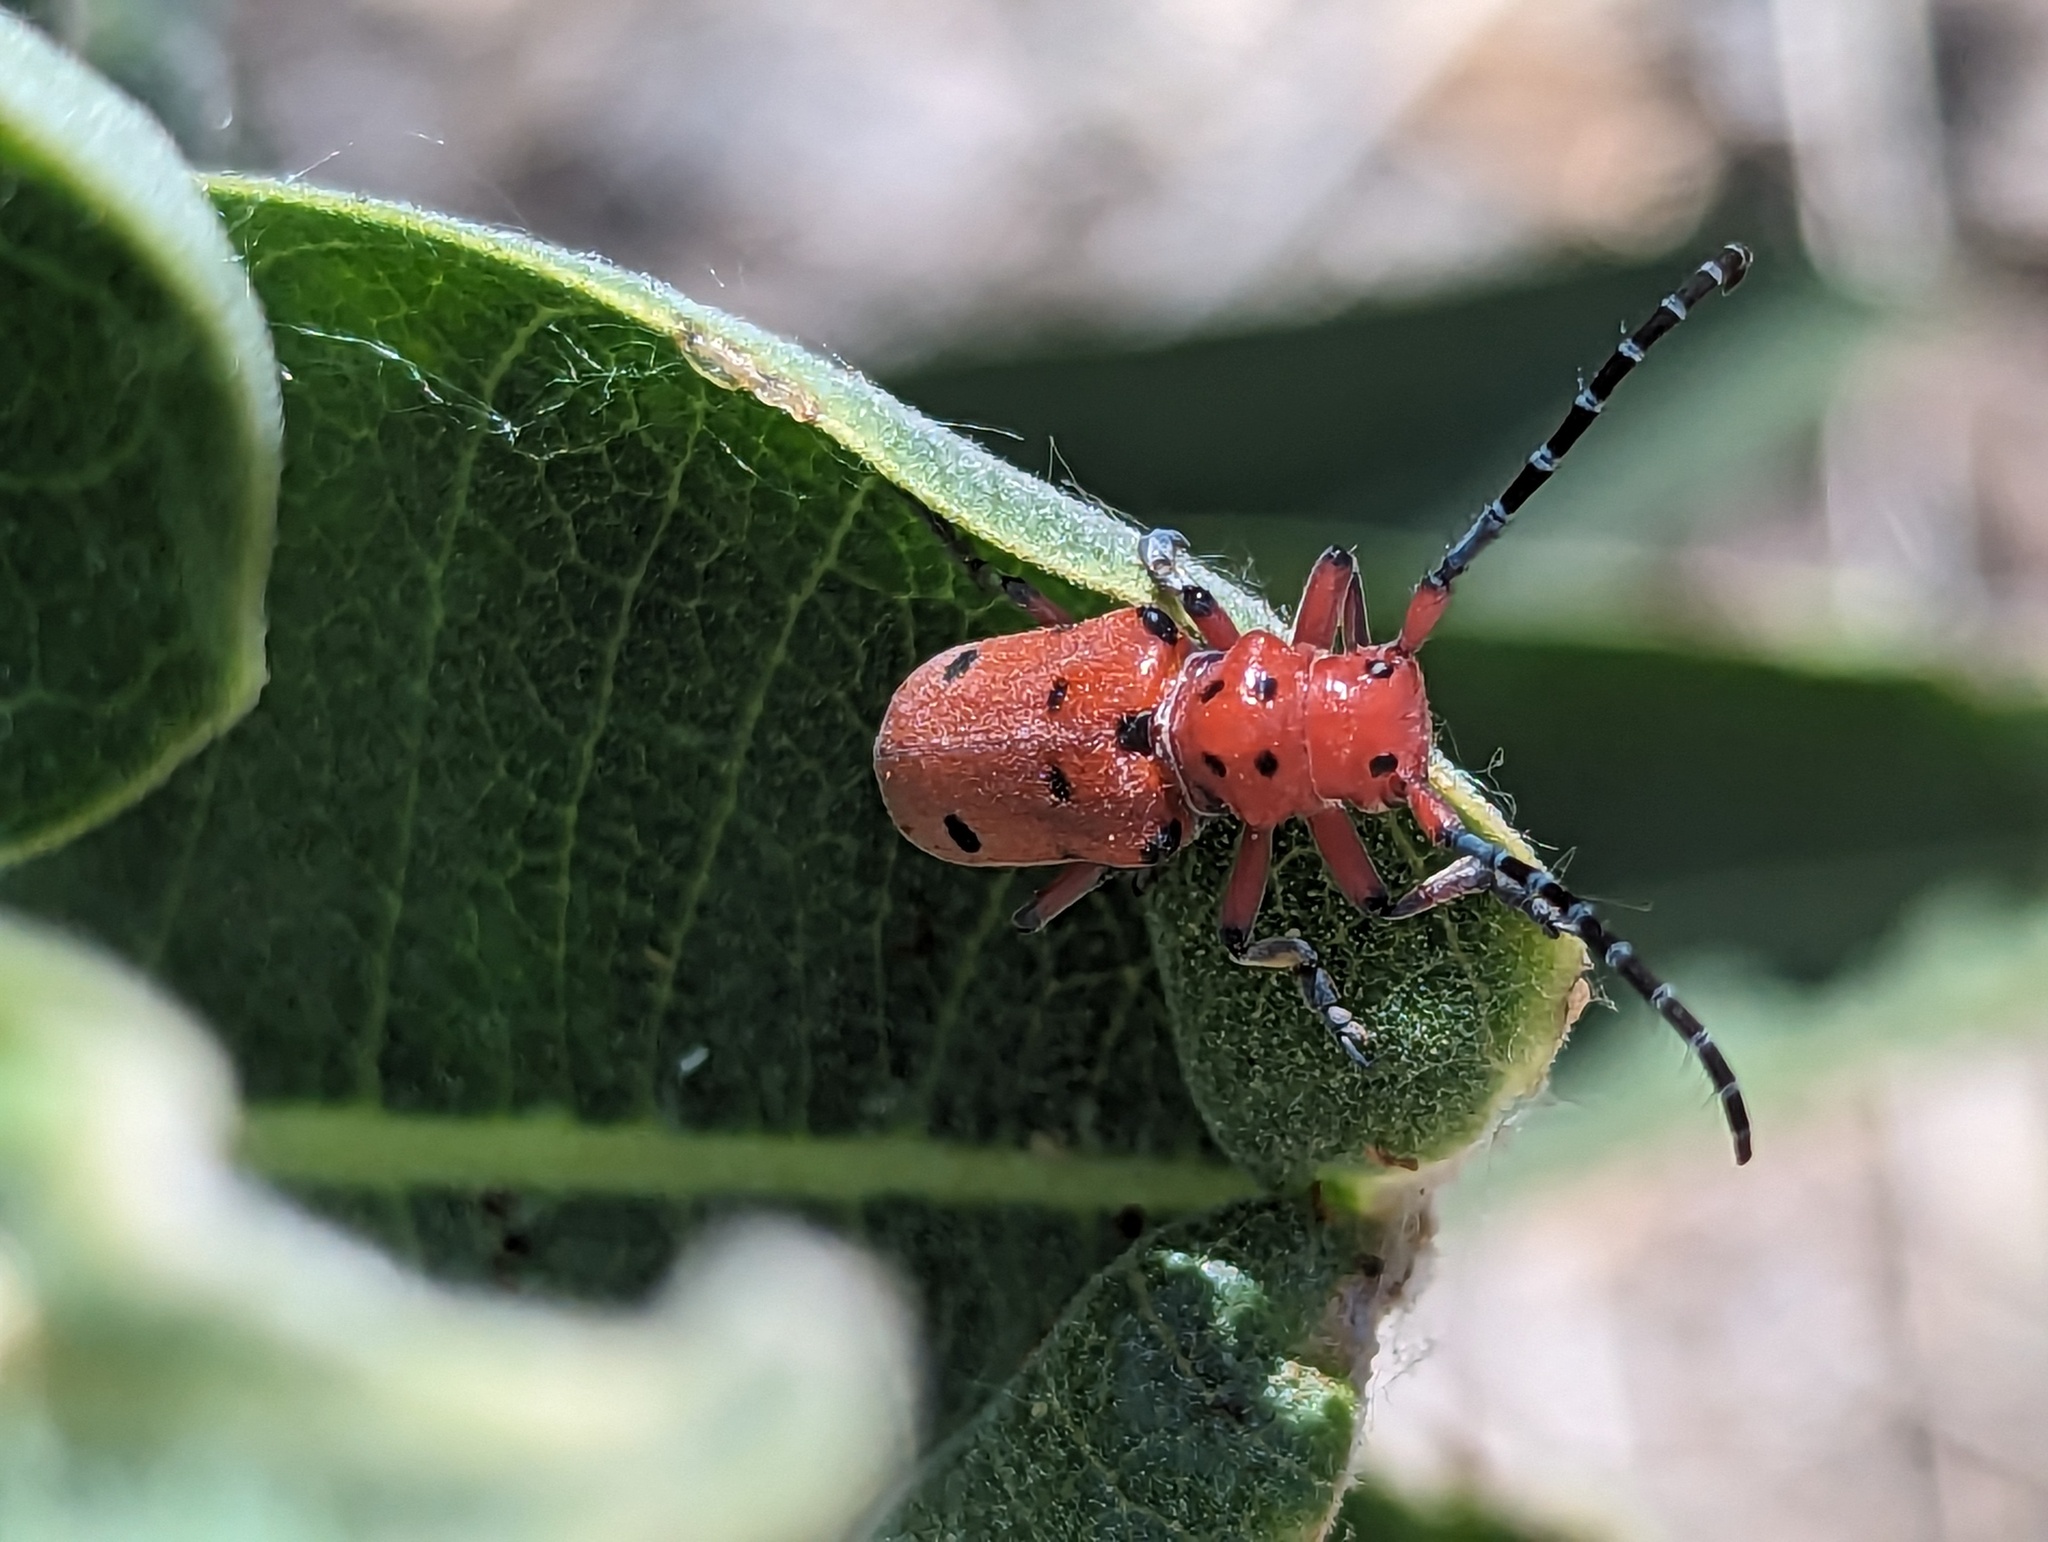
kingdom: Animalia
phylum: Arthropoda
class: Insecta
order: Coleoptera
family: Cerambycidae
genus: Tetraopes
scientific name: Tetraopes femoratus
